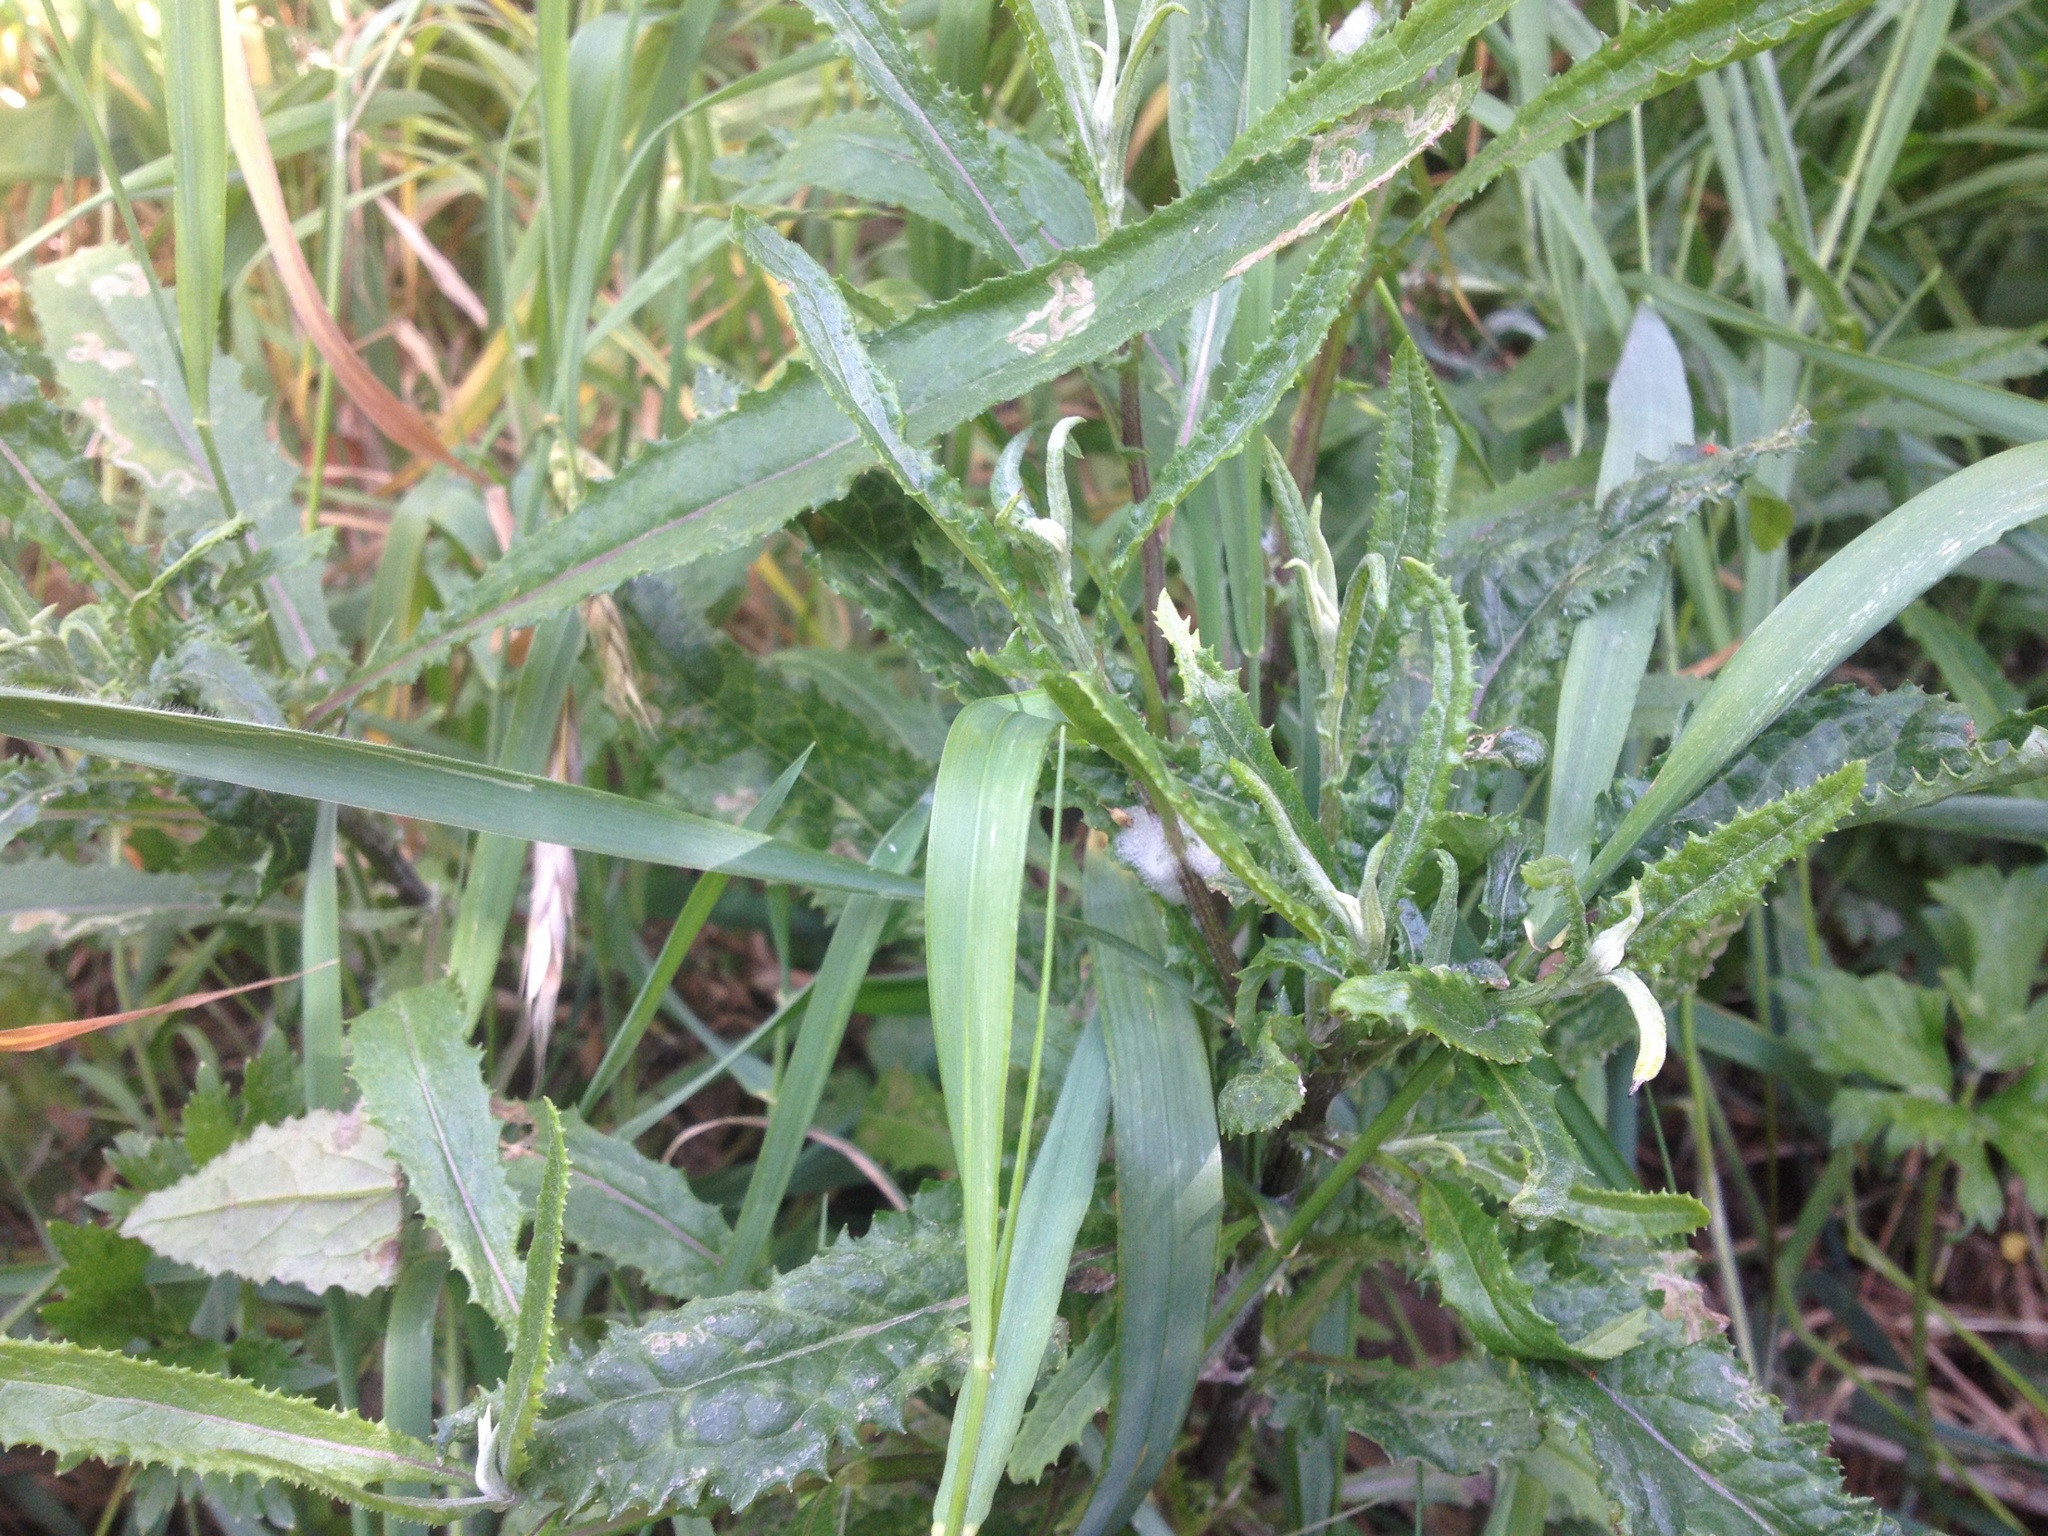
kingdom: Plantae
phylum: Tracheophyta
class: Magnoliopsida
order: Asterales
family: Asteraceae
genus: Senecio
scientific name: Senecio minimus
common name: Toothed fireweed
